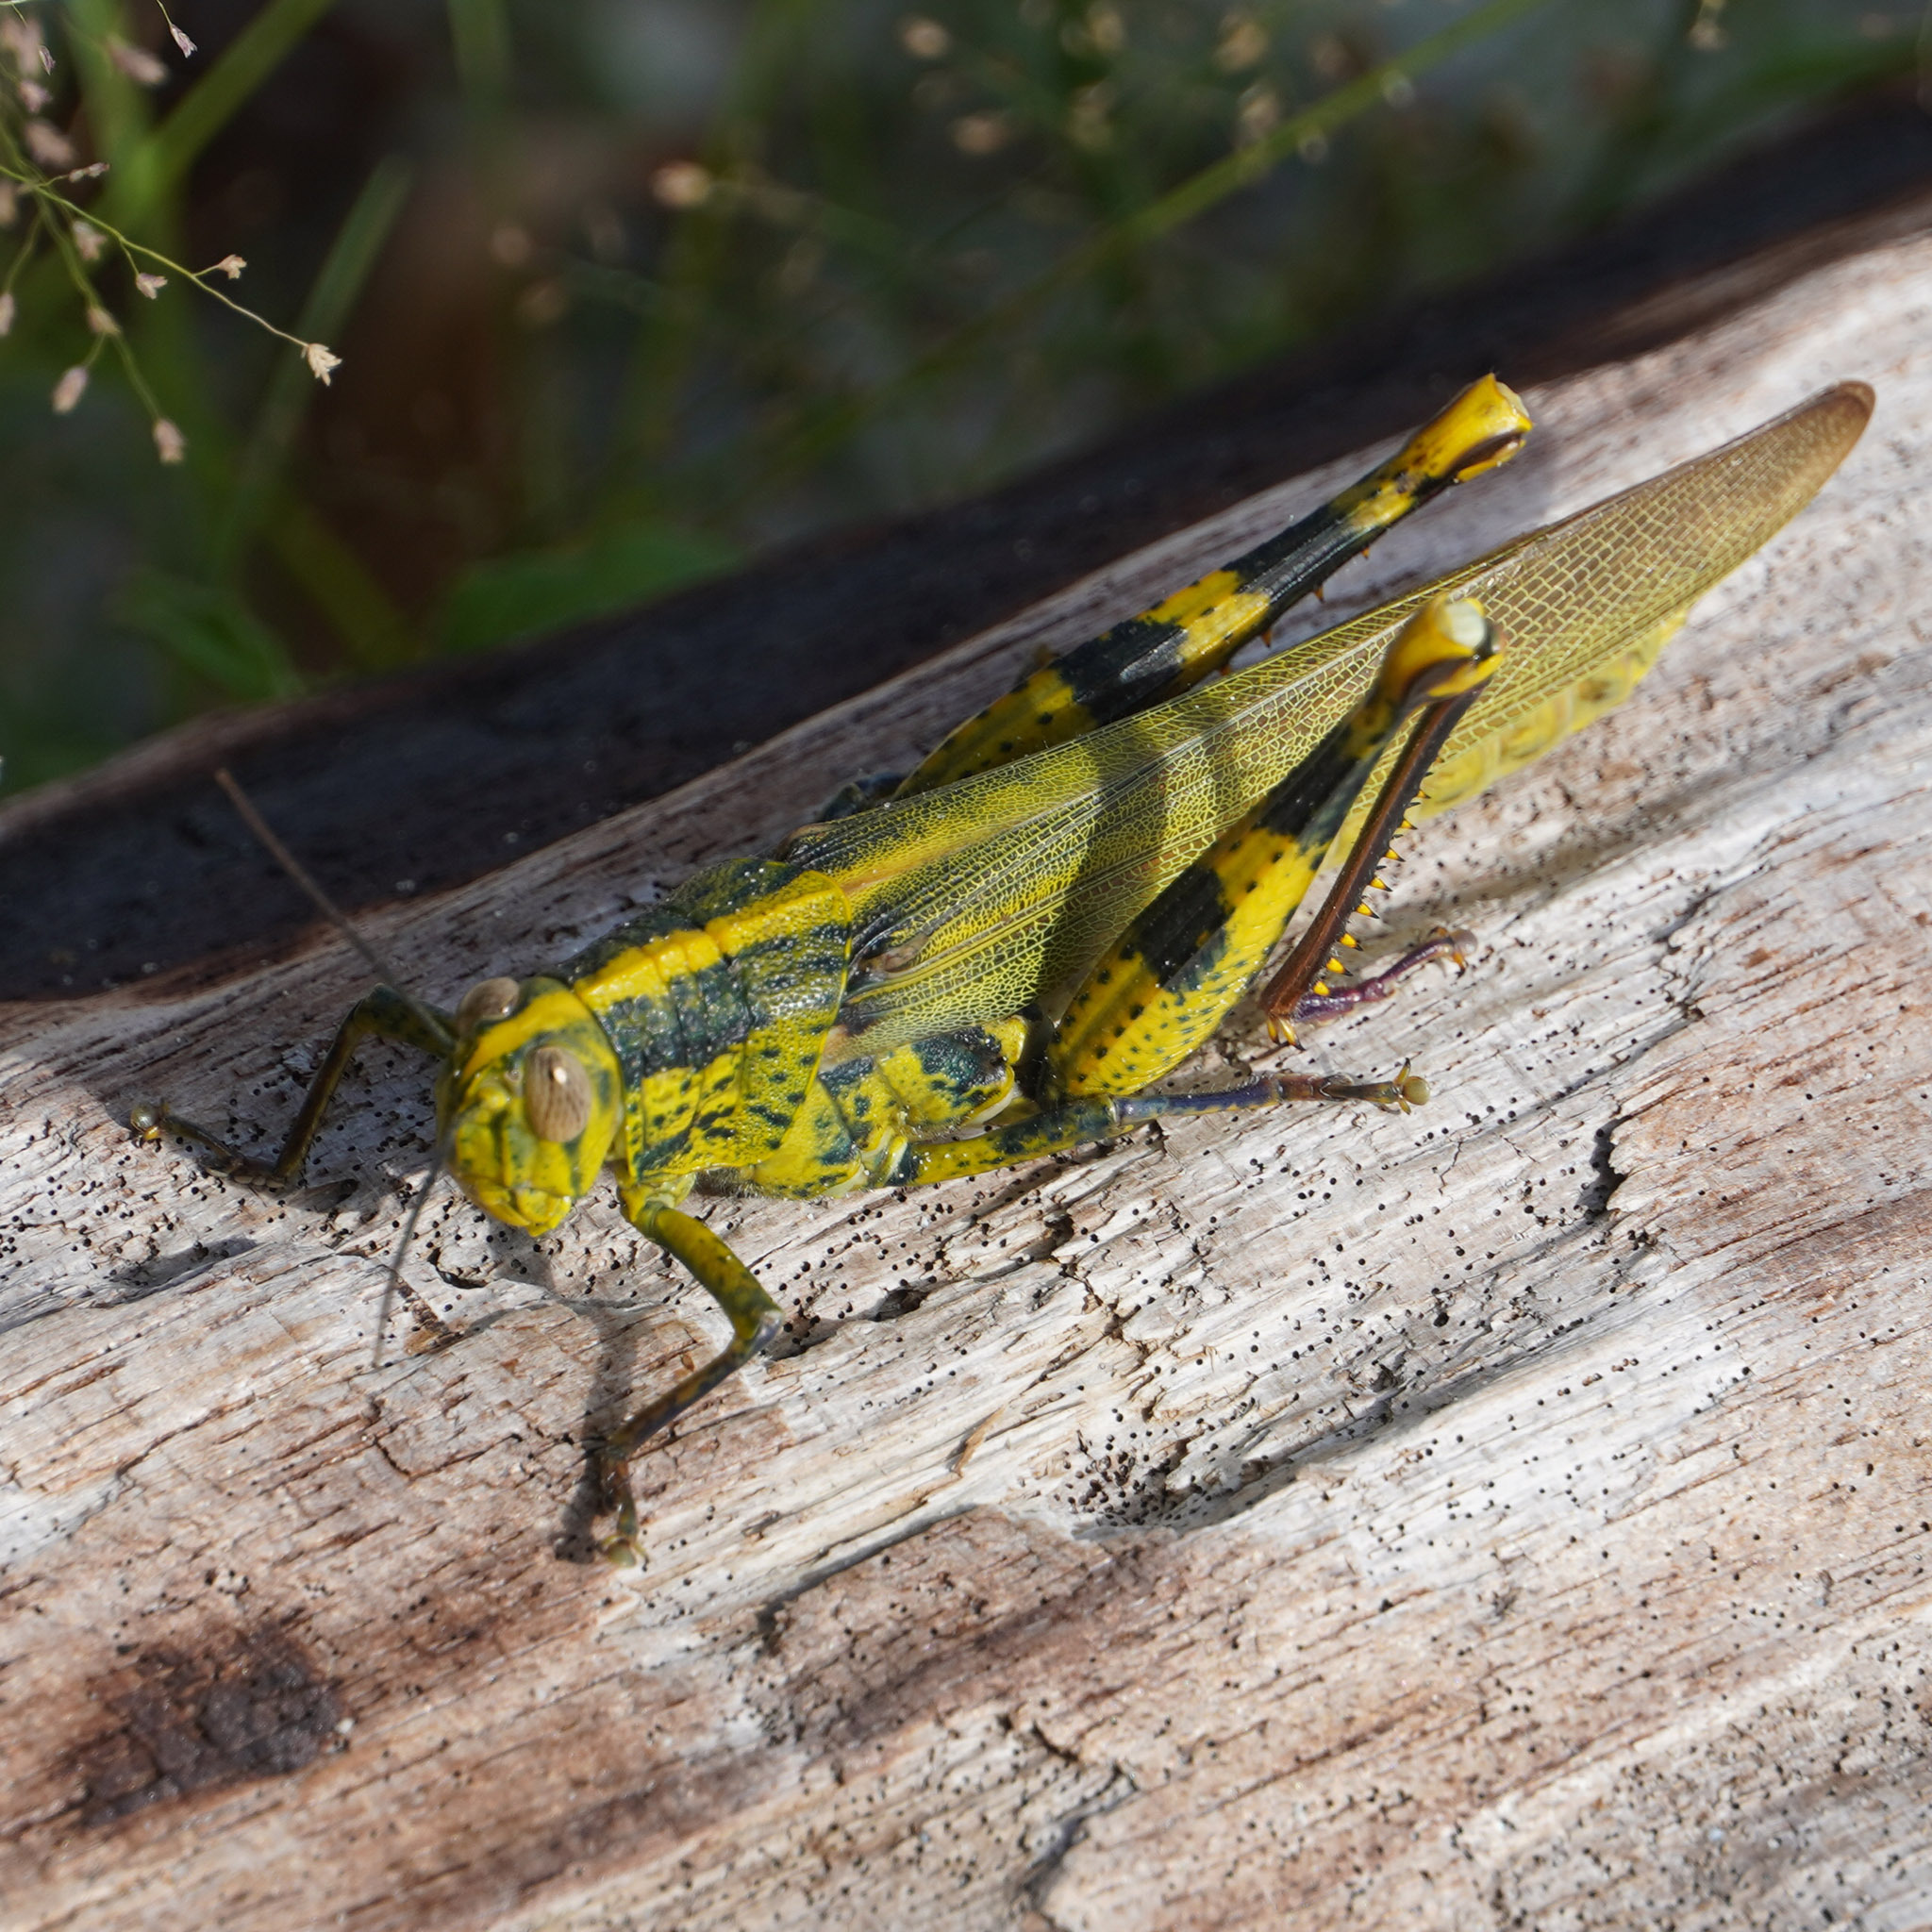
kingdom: Animalia
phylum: Arthropoda
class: Insecta
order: Orthoptera
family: Acrididae
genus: Valanga
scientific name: Valanga nigricornis
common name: Javanese bird grasshopper
